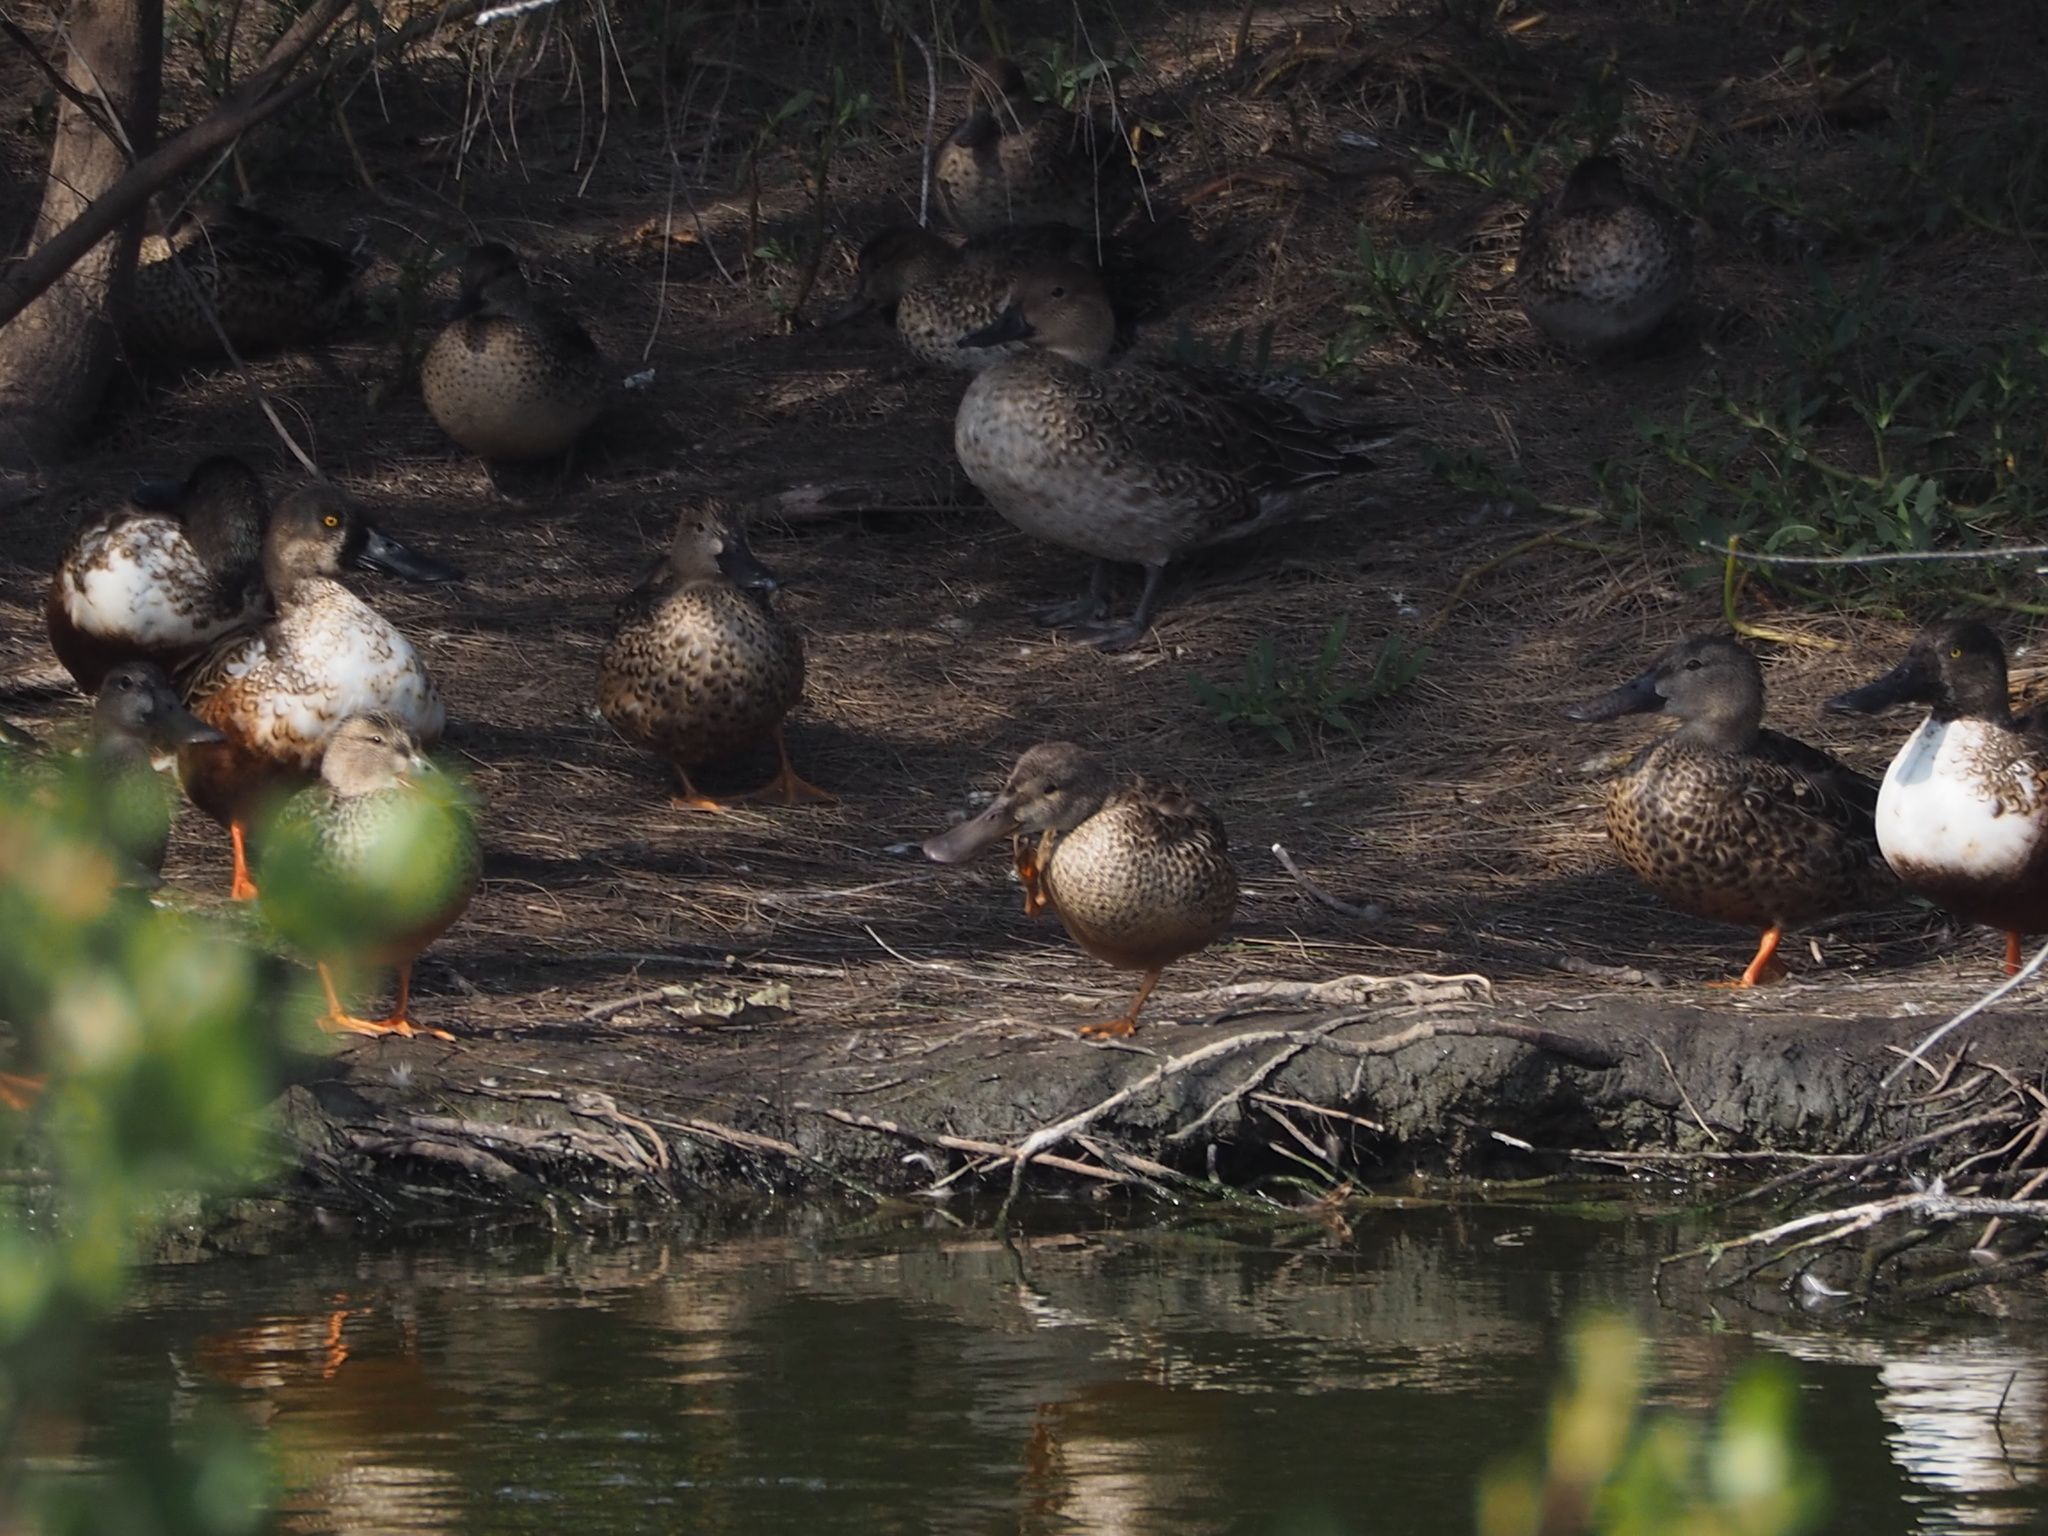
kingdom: Animalia
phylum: Chordata
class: Aves
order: Anseriformes
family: Anatidae
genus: Spatula
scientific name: Spatula clypeata
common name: Northern shoveler
